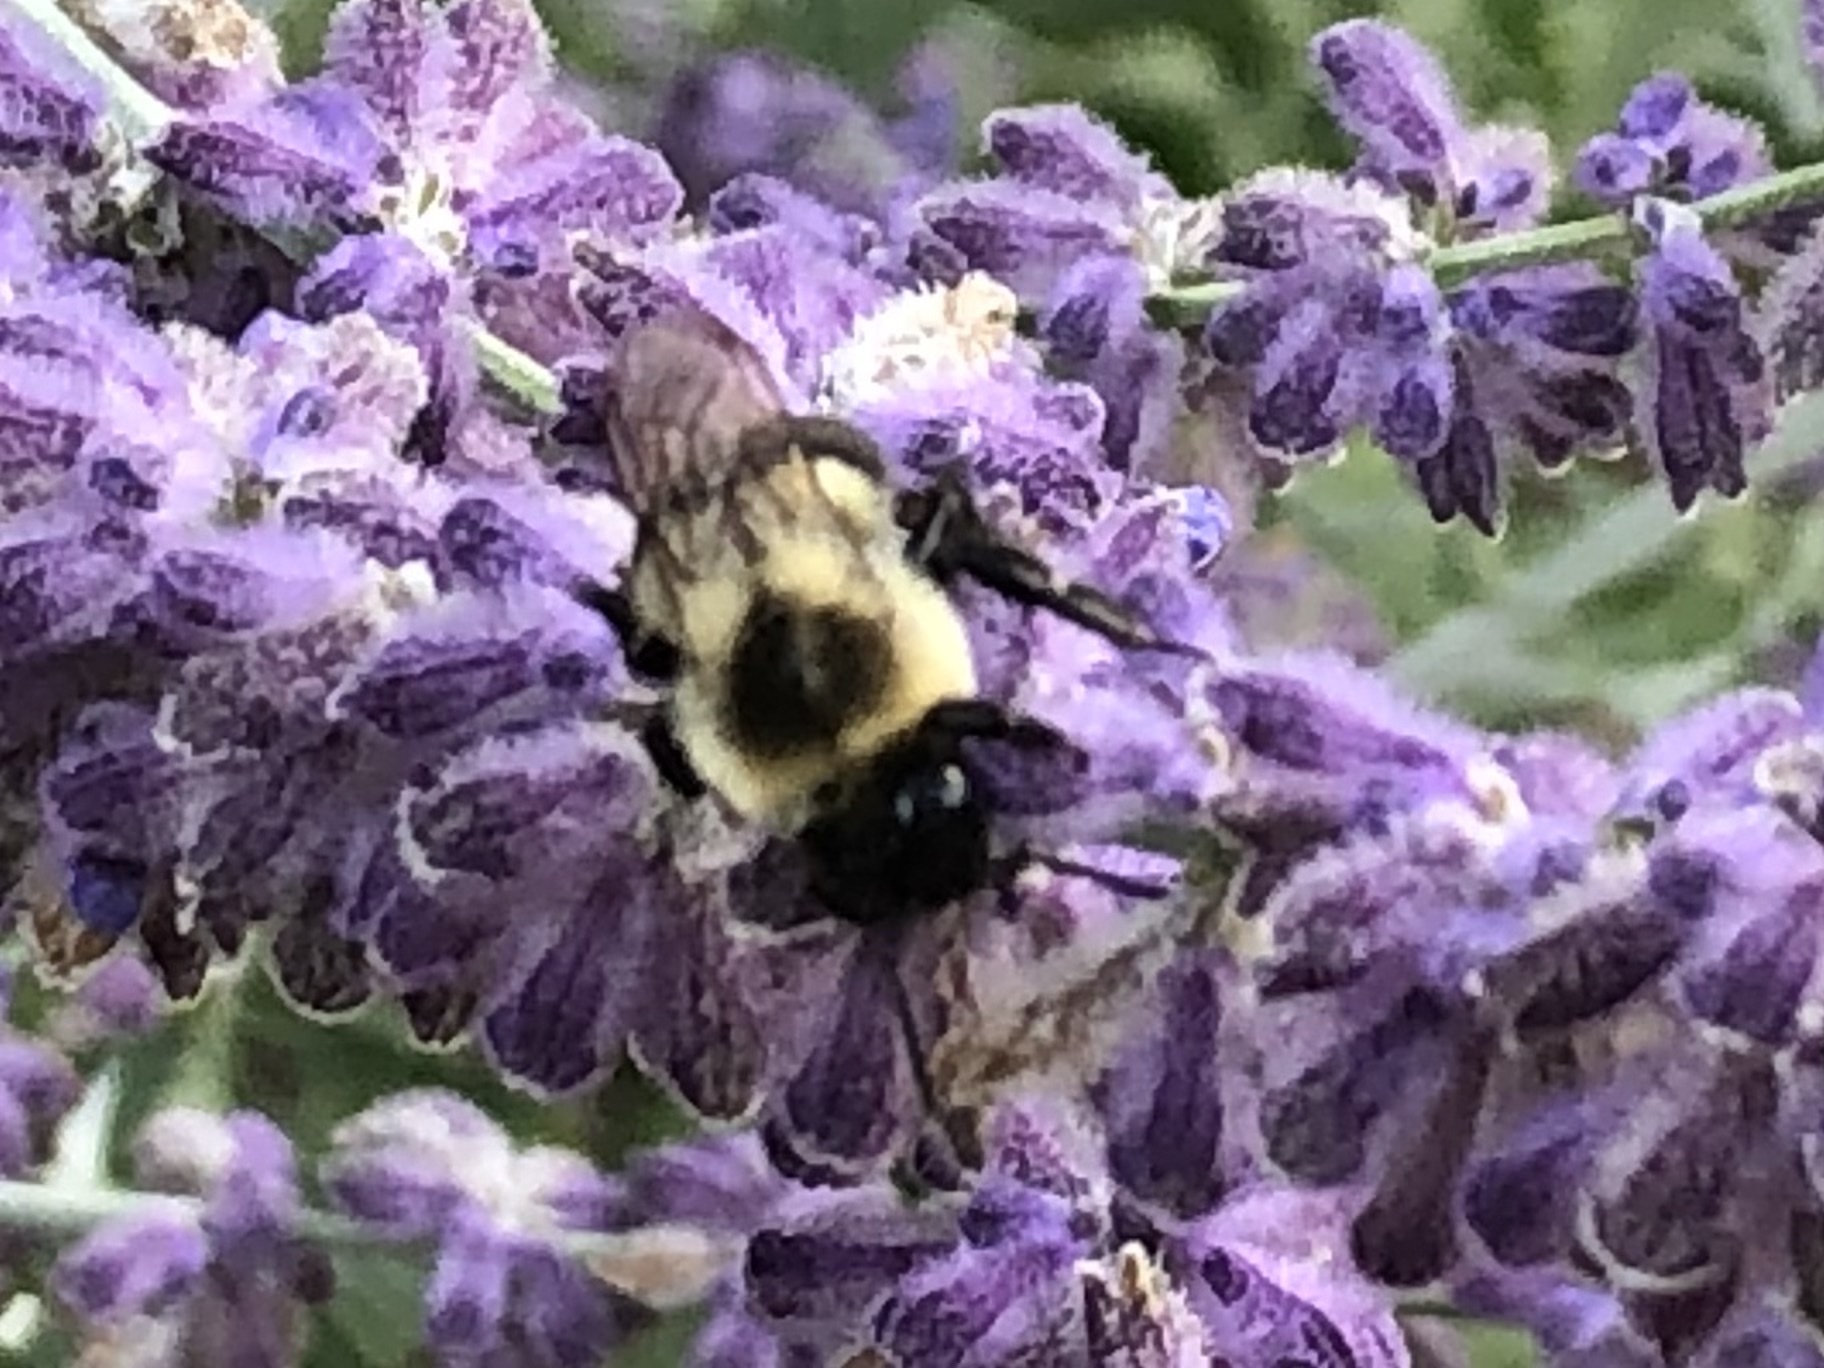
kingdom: Animalia
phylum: Arthropoda
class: Insecta
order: Hymenoptera
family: Apidae
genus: Bombus
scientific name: Bombus impatiens
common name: Common eastern bumble bee
